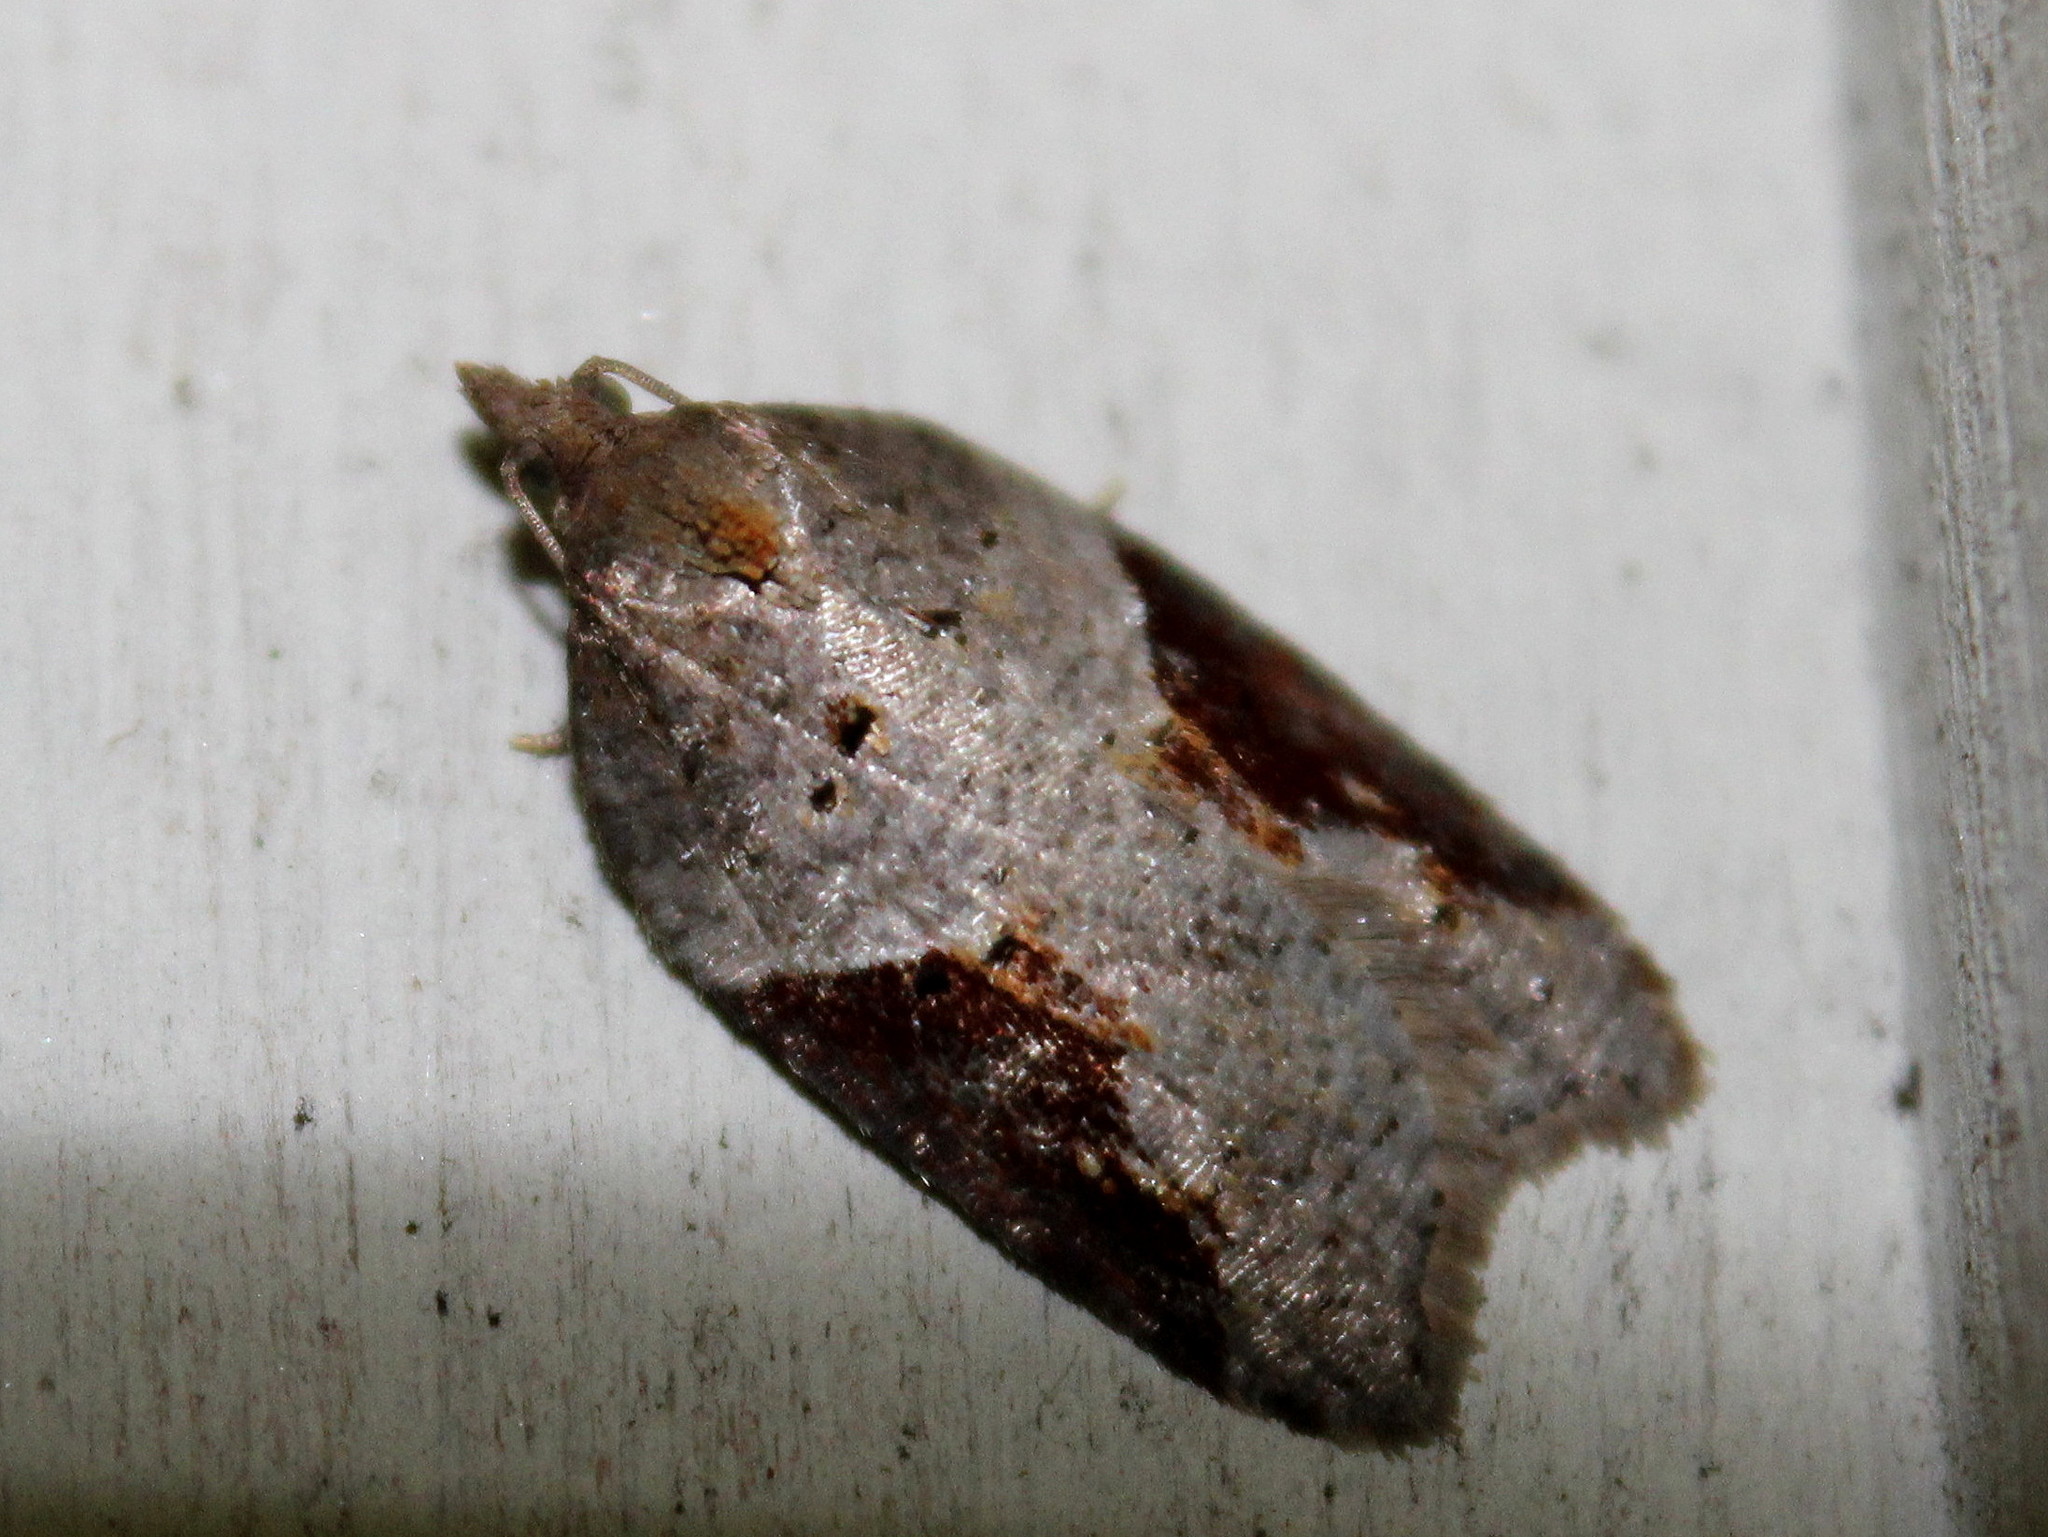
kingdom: Animalia
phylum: Arthropoda
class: Insecta
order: Lepidoptera
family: Tortricidae
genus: Acleris
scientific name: Acleris macdunnoughi
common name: Macdunnough's acleris
